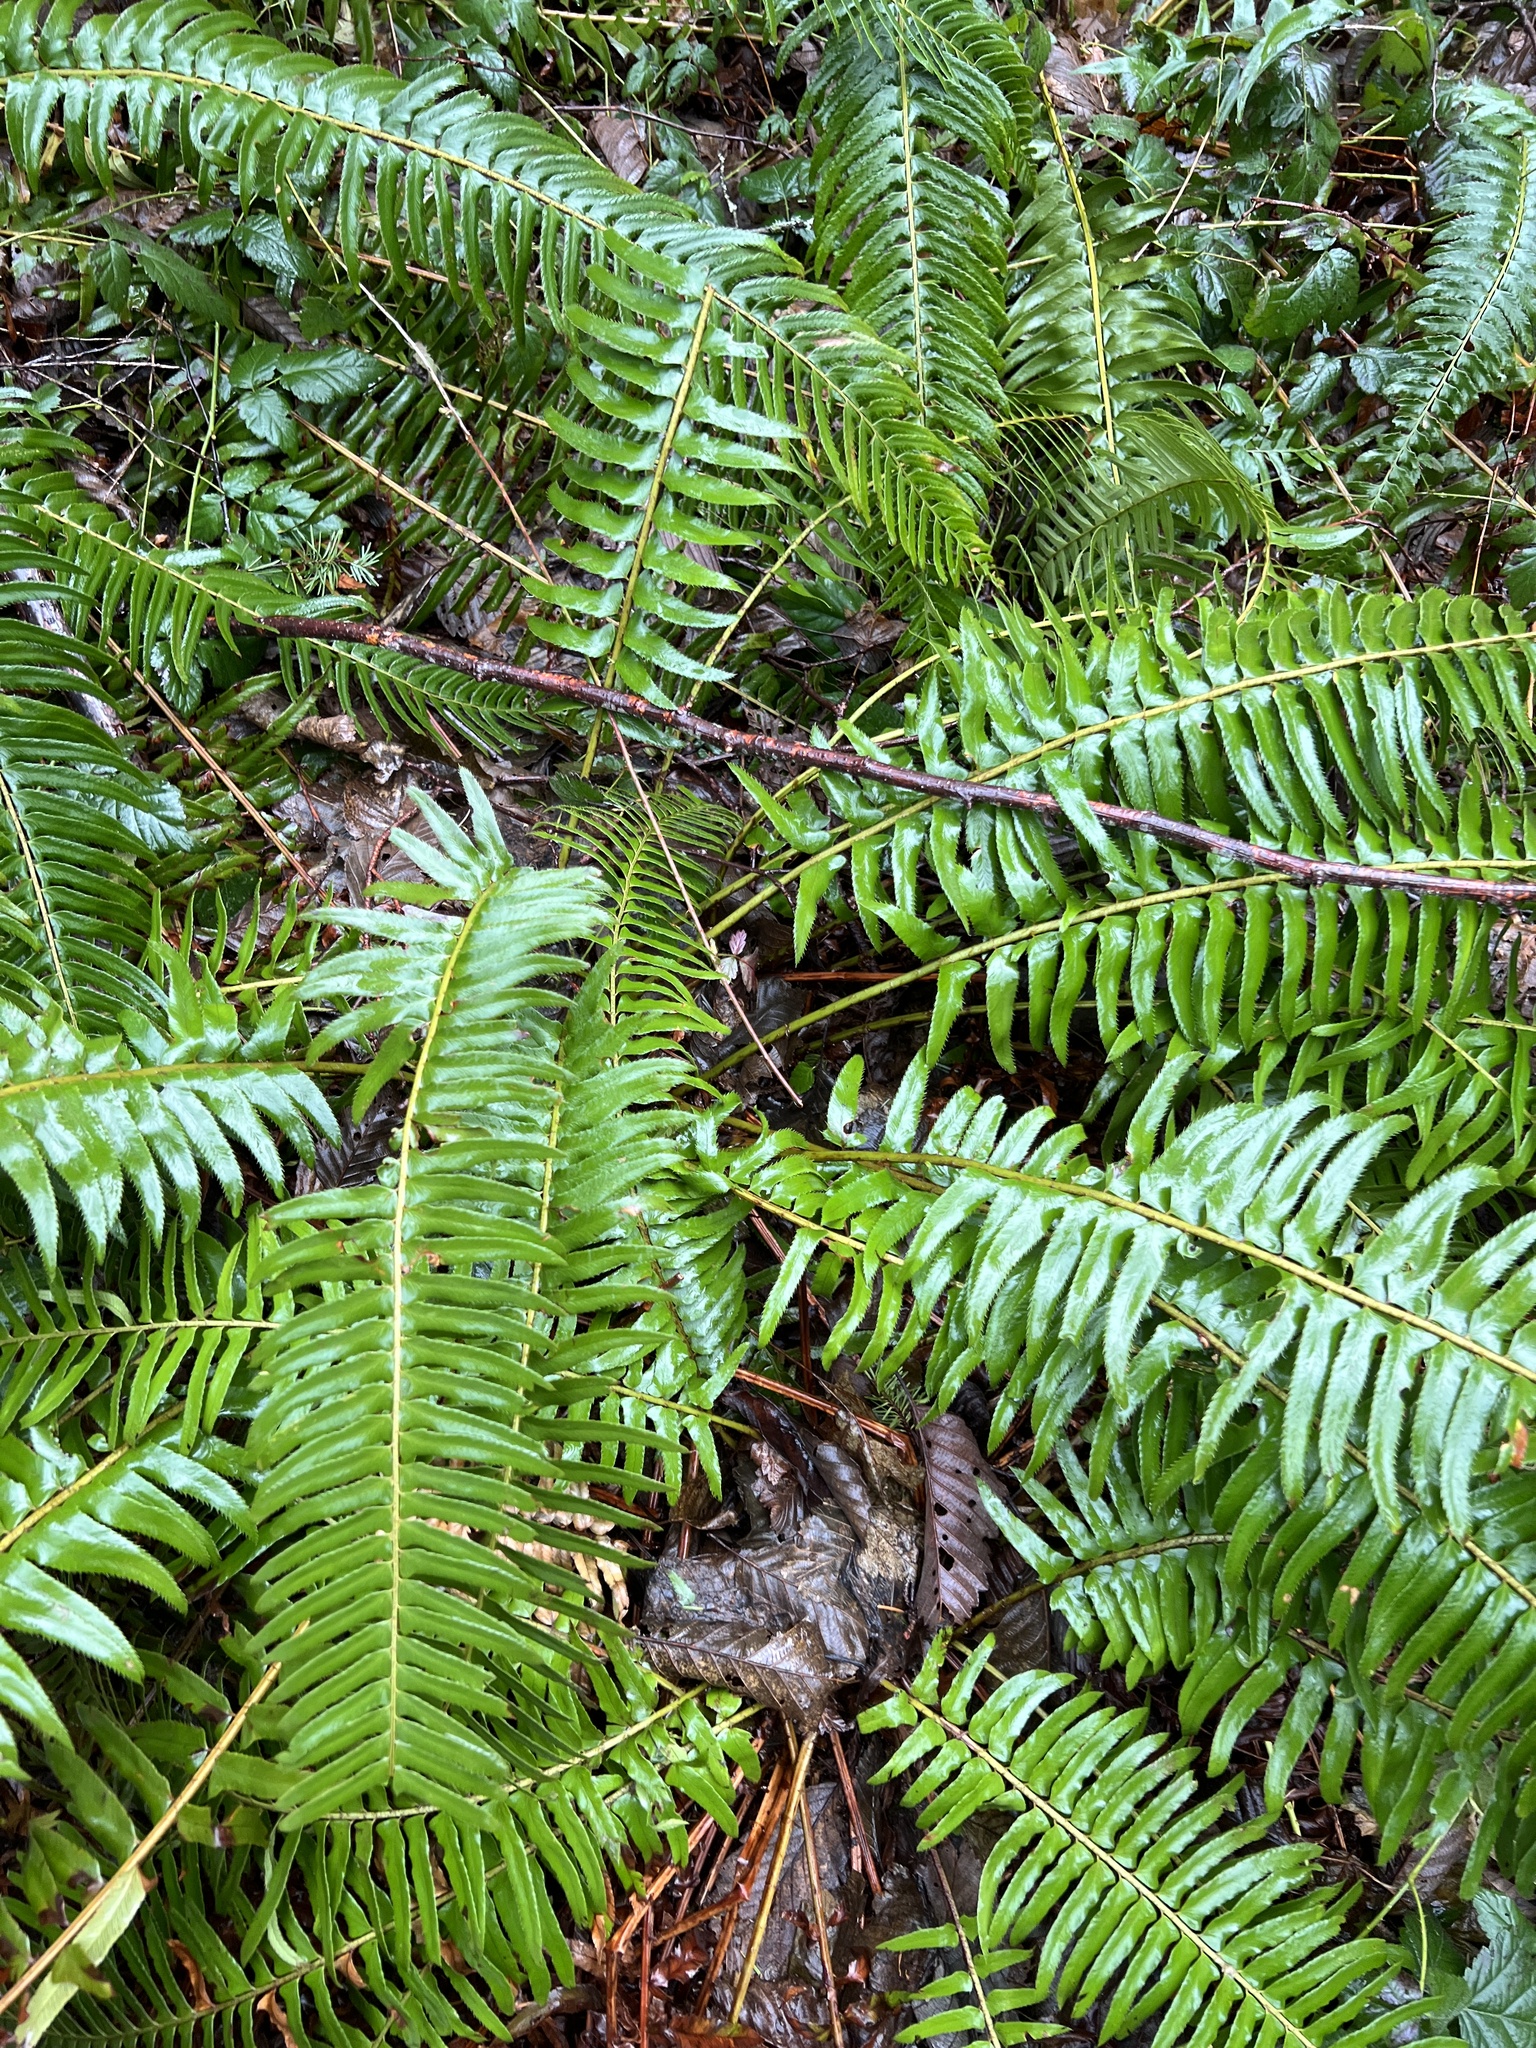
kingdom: Plantae
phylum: Tracheophyta
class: Polypodiopsida
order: Polypodiales
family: Dryopteridaceae
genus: Polystichum
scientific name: Polystichum munitum
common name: Western sword-fern
